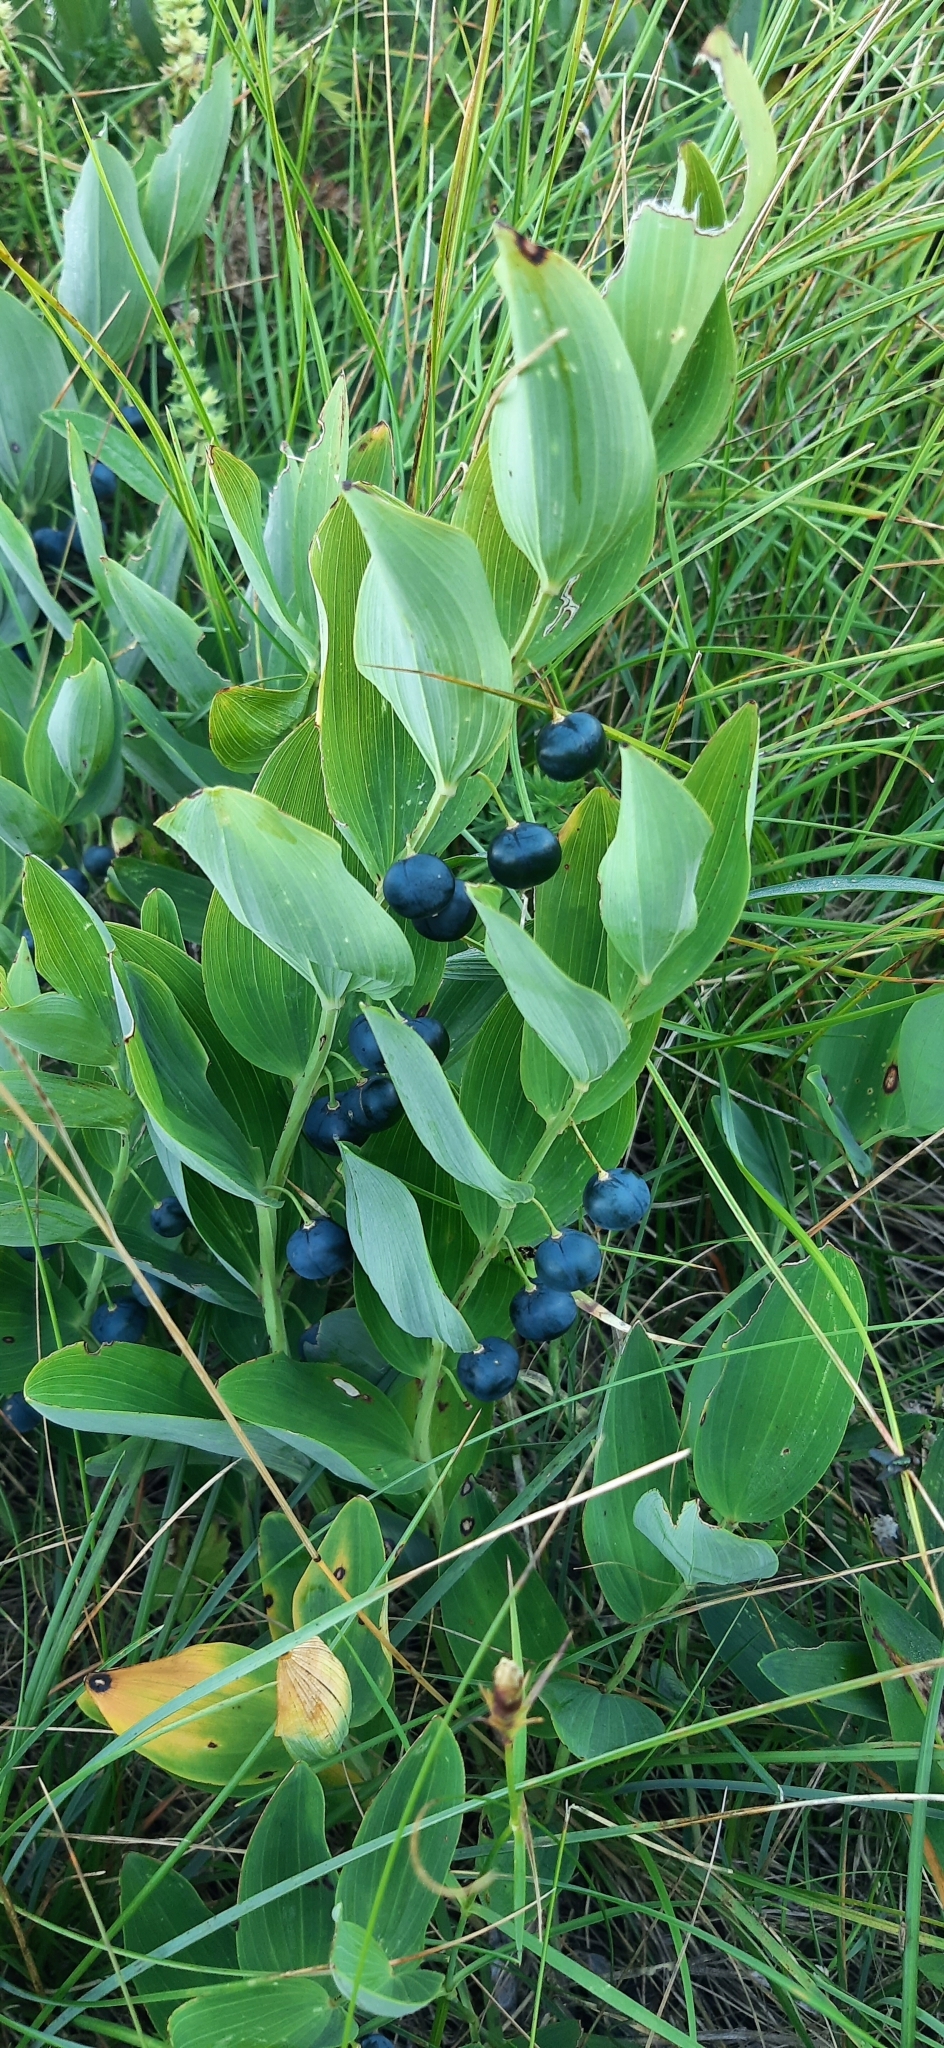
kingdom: Plantae
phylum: Tracheophyta
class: Liliopsida
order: Asparagales
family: Asparagaceae
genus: Polygonatum
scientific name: Polygonatum odoratum
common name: Angular solomon's-seal
